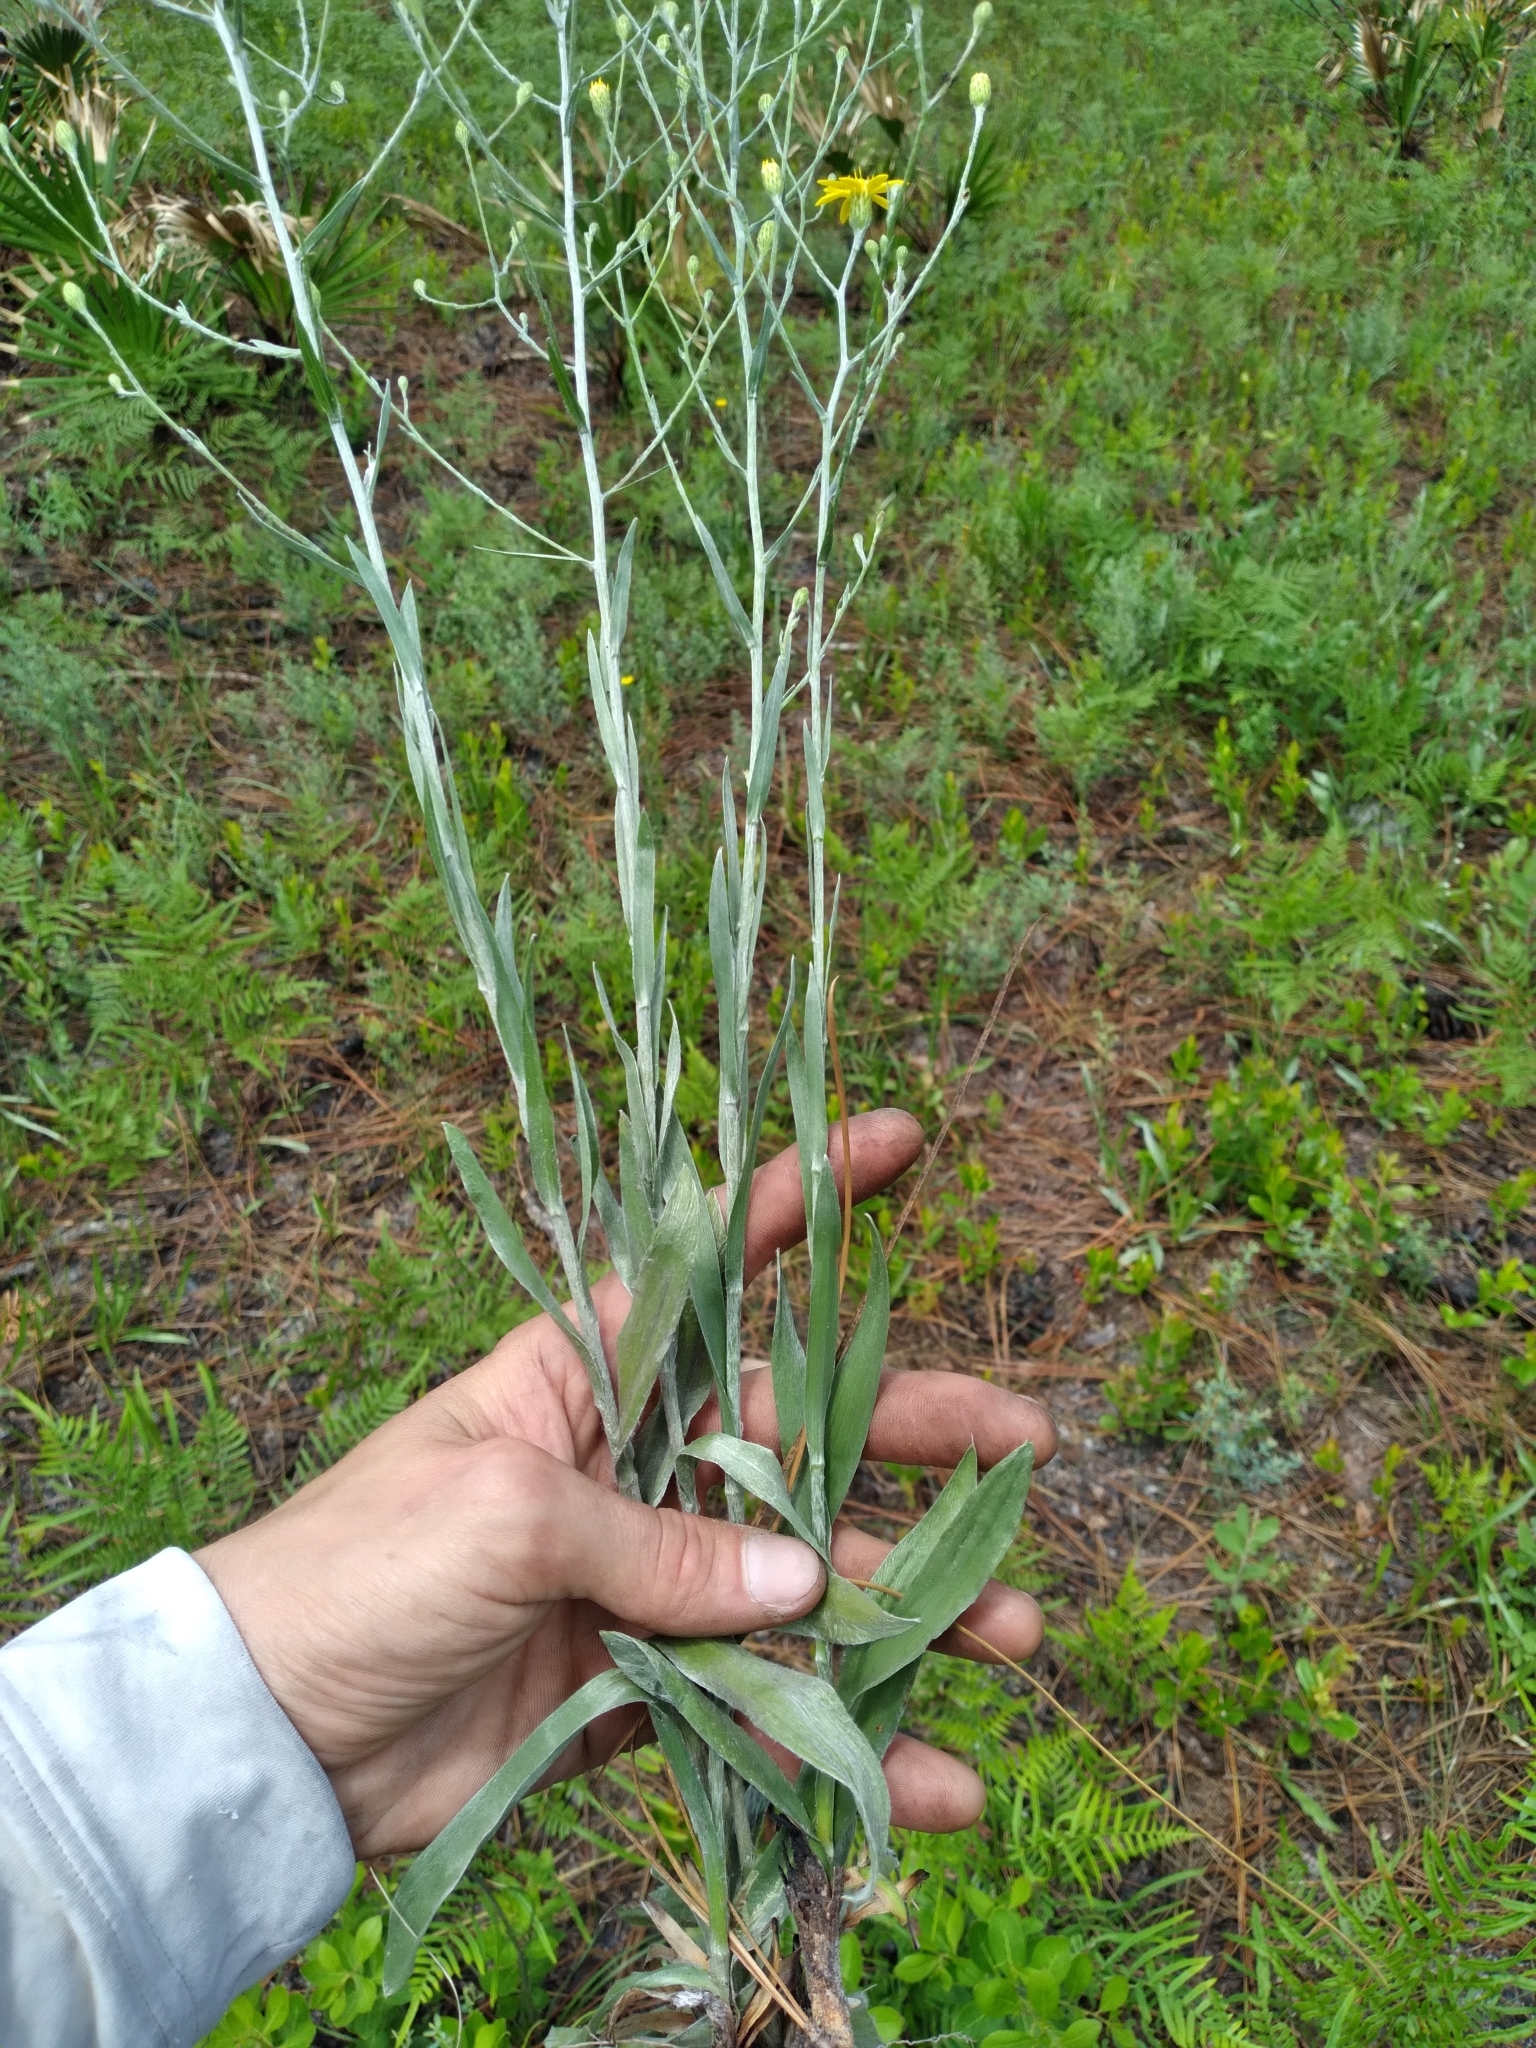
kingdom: Plantae
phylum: Tracheophyta
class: Magnoliopsida
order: Asterales
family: Asteraceae
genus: Pityopsis
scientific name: Pityopsis graminifolia
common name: Grass-leaf golden-aster
